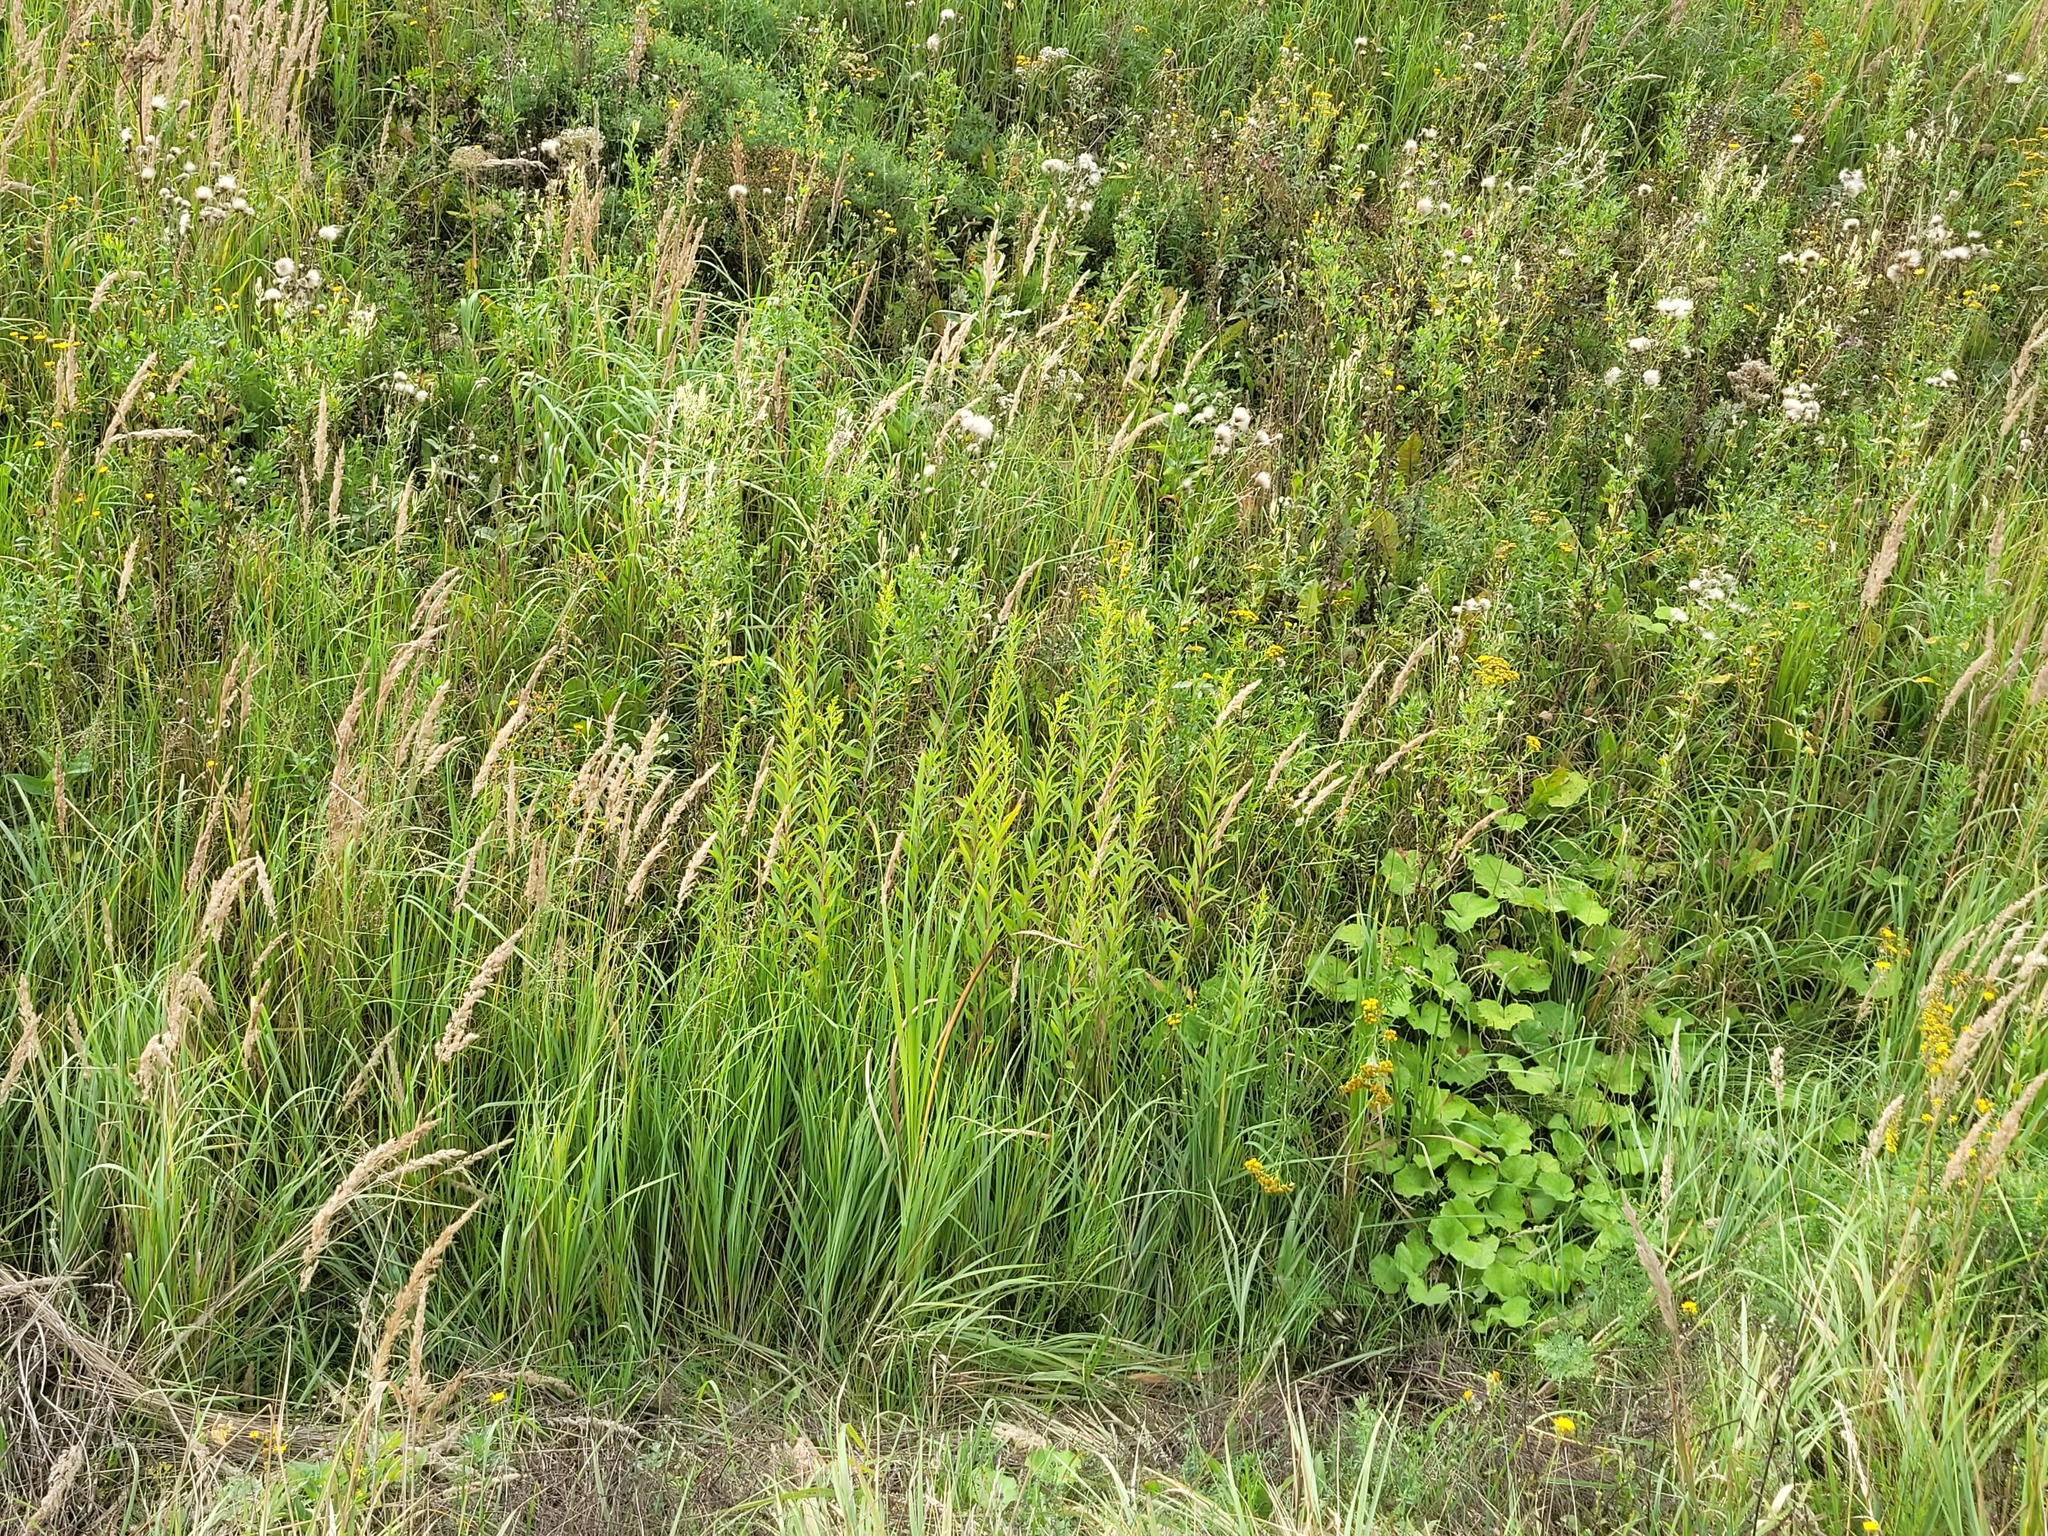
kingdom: Plantae
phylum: Tracheophyta
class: Magnoliopsida
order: Asterales
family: Asteraceae
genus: Solidago
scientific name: Solidago gigantea
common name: Giant goldenrod
